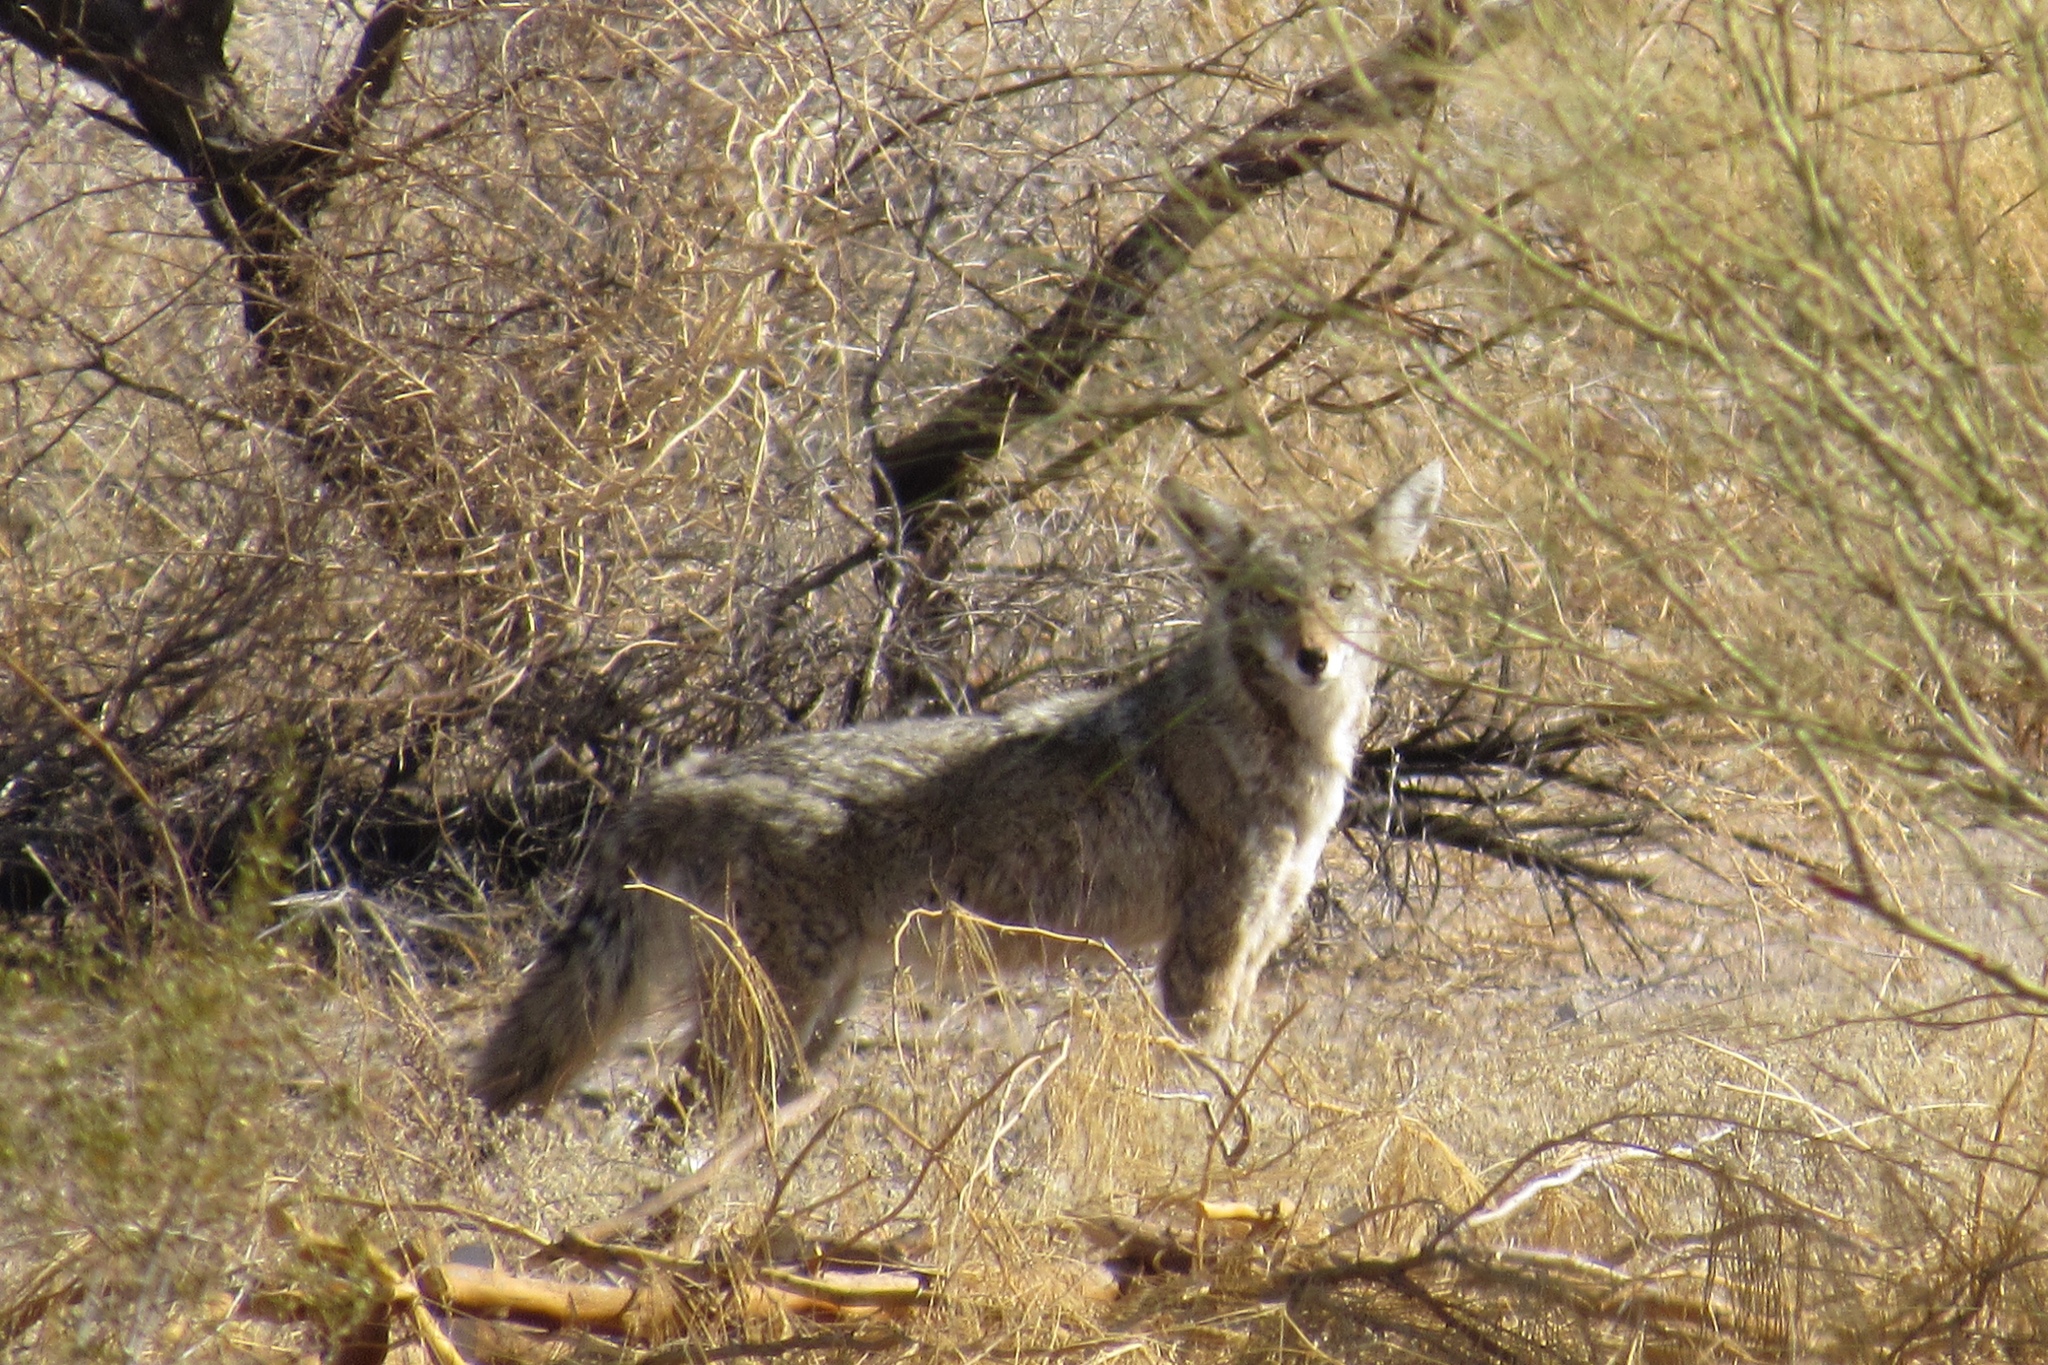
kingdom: Animalia
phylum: Chordata
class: Mammalia
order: Carnivora
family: Canidae
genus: Canis
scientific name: Canis latrans
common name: Coyote
